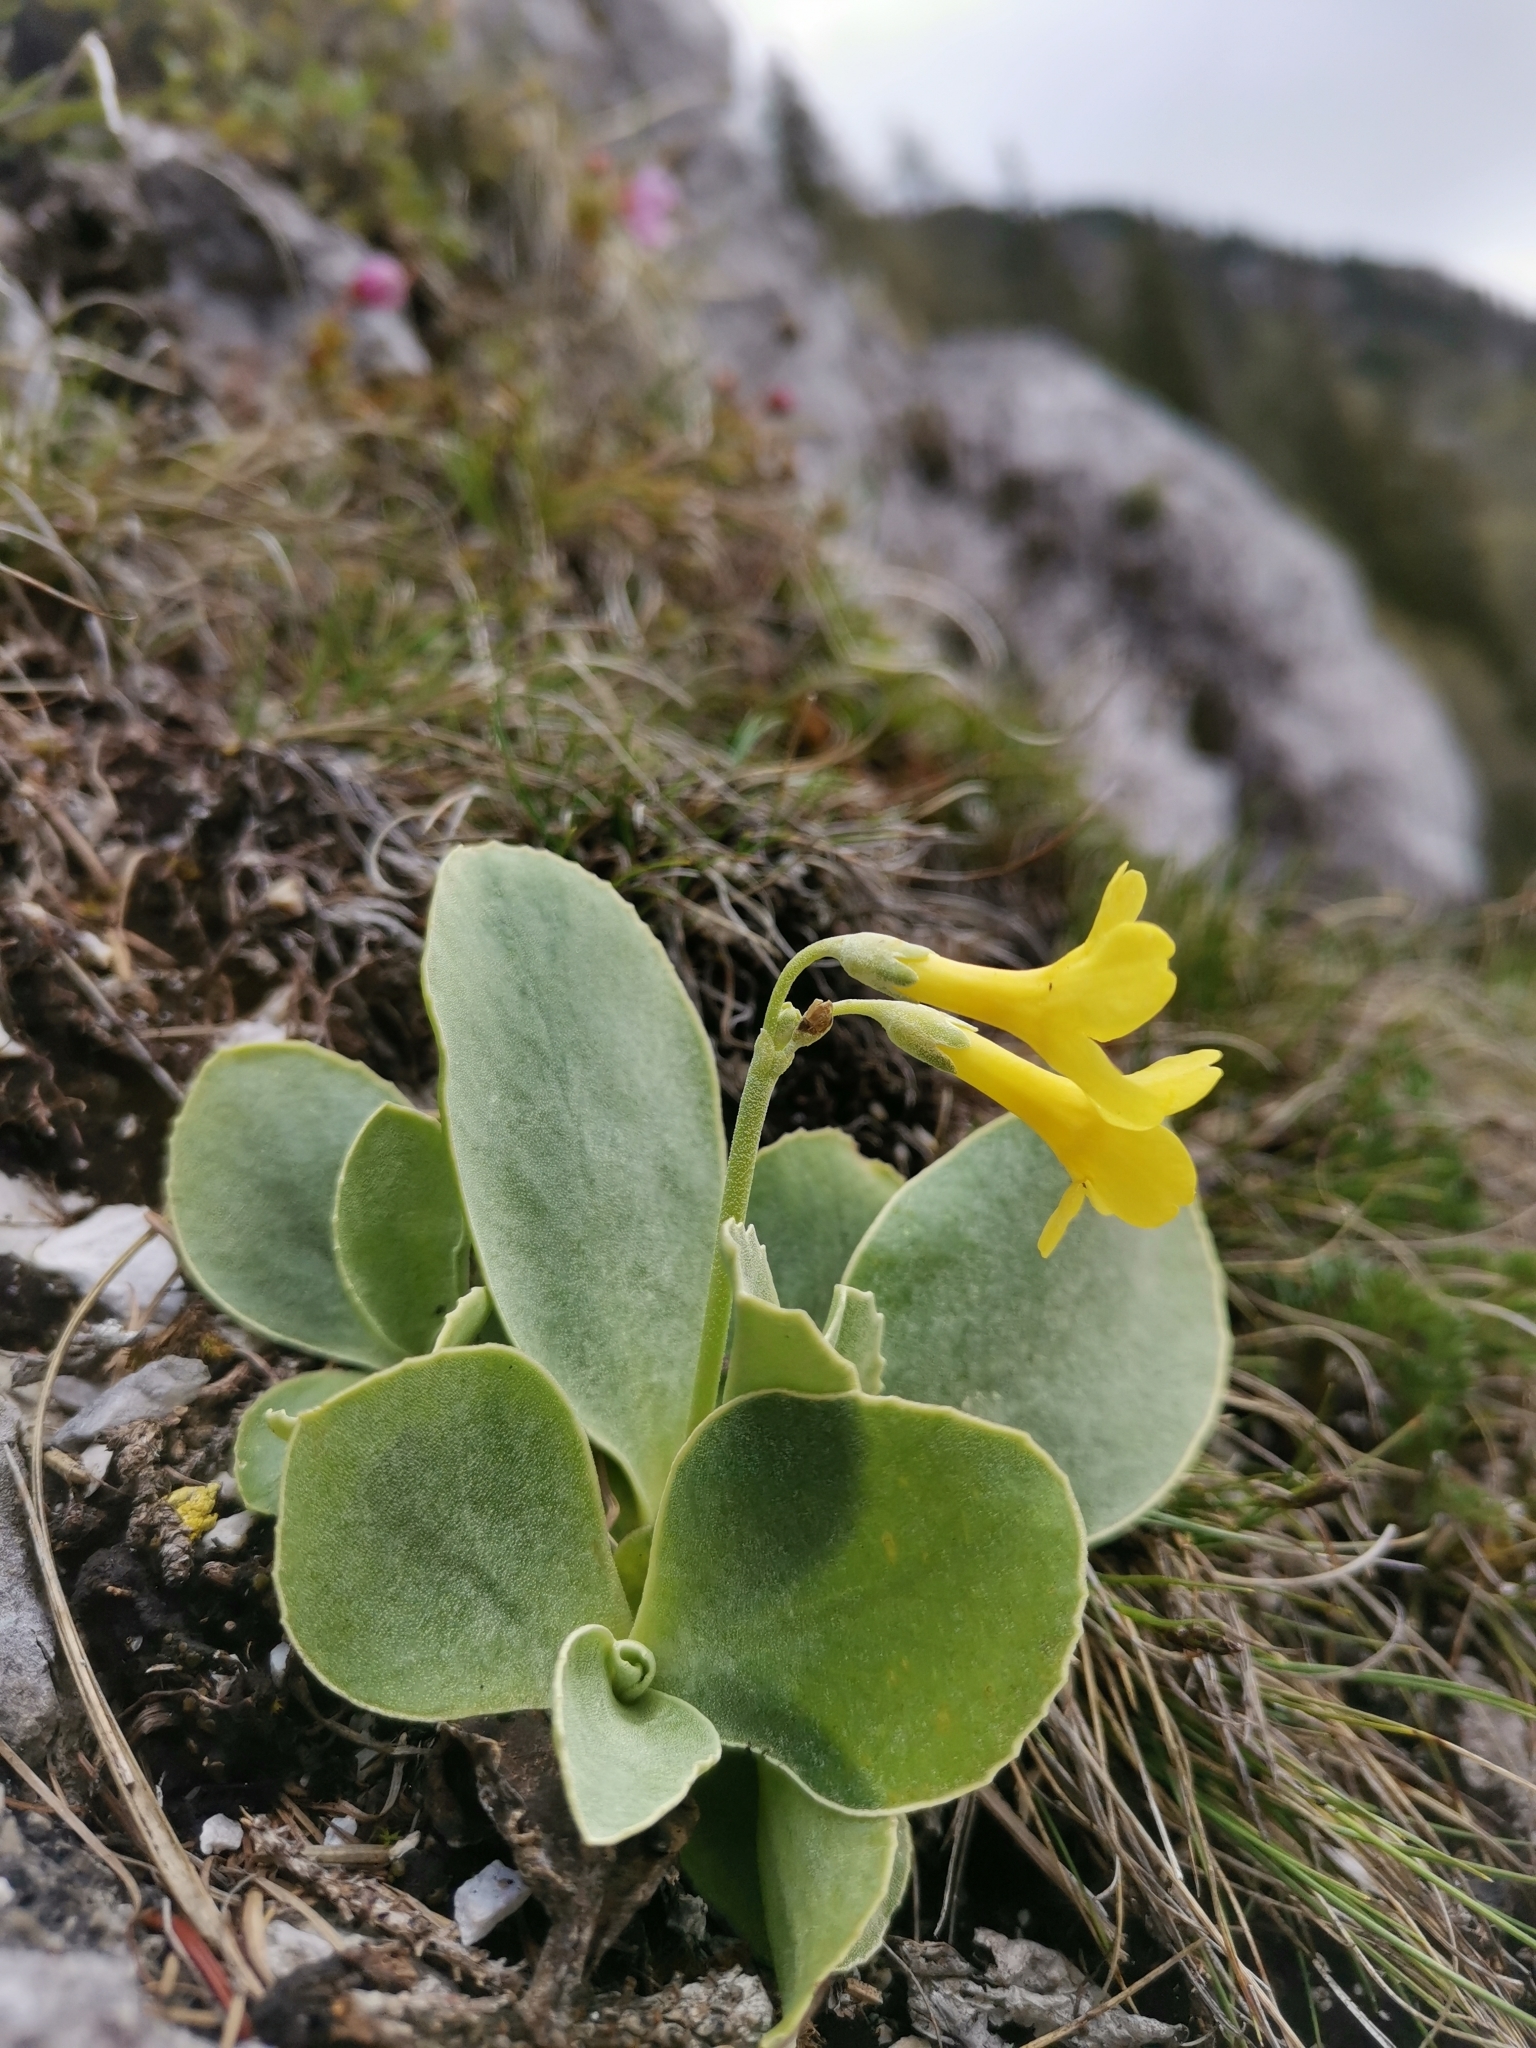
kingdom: Plantae
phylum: Tracheophyta
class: Magnoliopsida
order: Ericales
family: Primulaceae
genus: Primula
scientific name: Primula auricula
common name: Auricula
